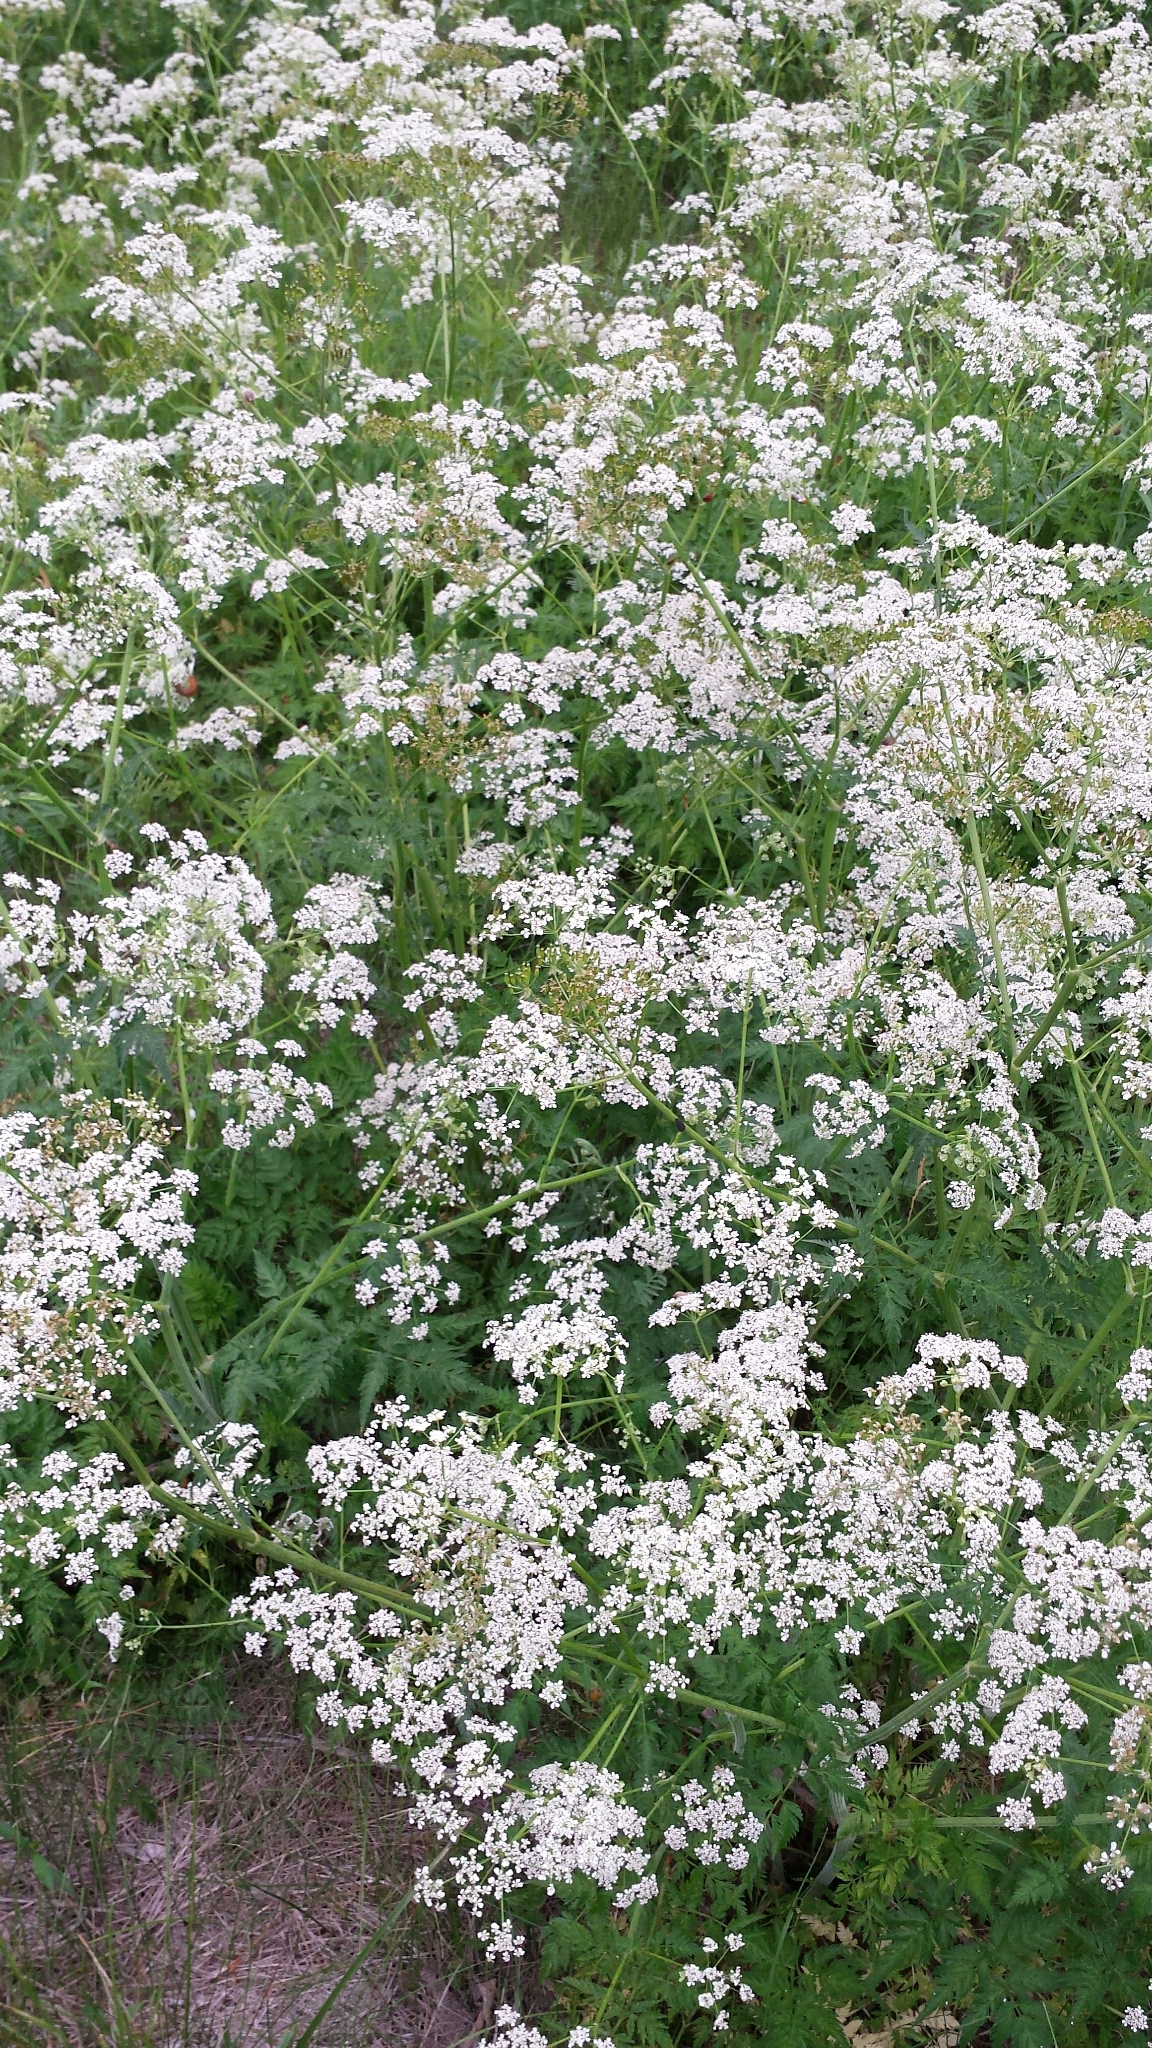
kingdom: Plantae
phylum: Tracheophyta
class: Magnoliopsida
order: Apiales
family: Apiaceae
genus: Anthriscus
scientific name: Anthriscus sylvestris
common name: Cow parsley
